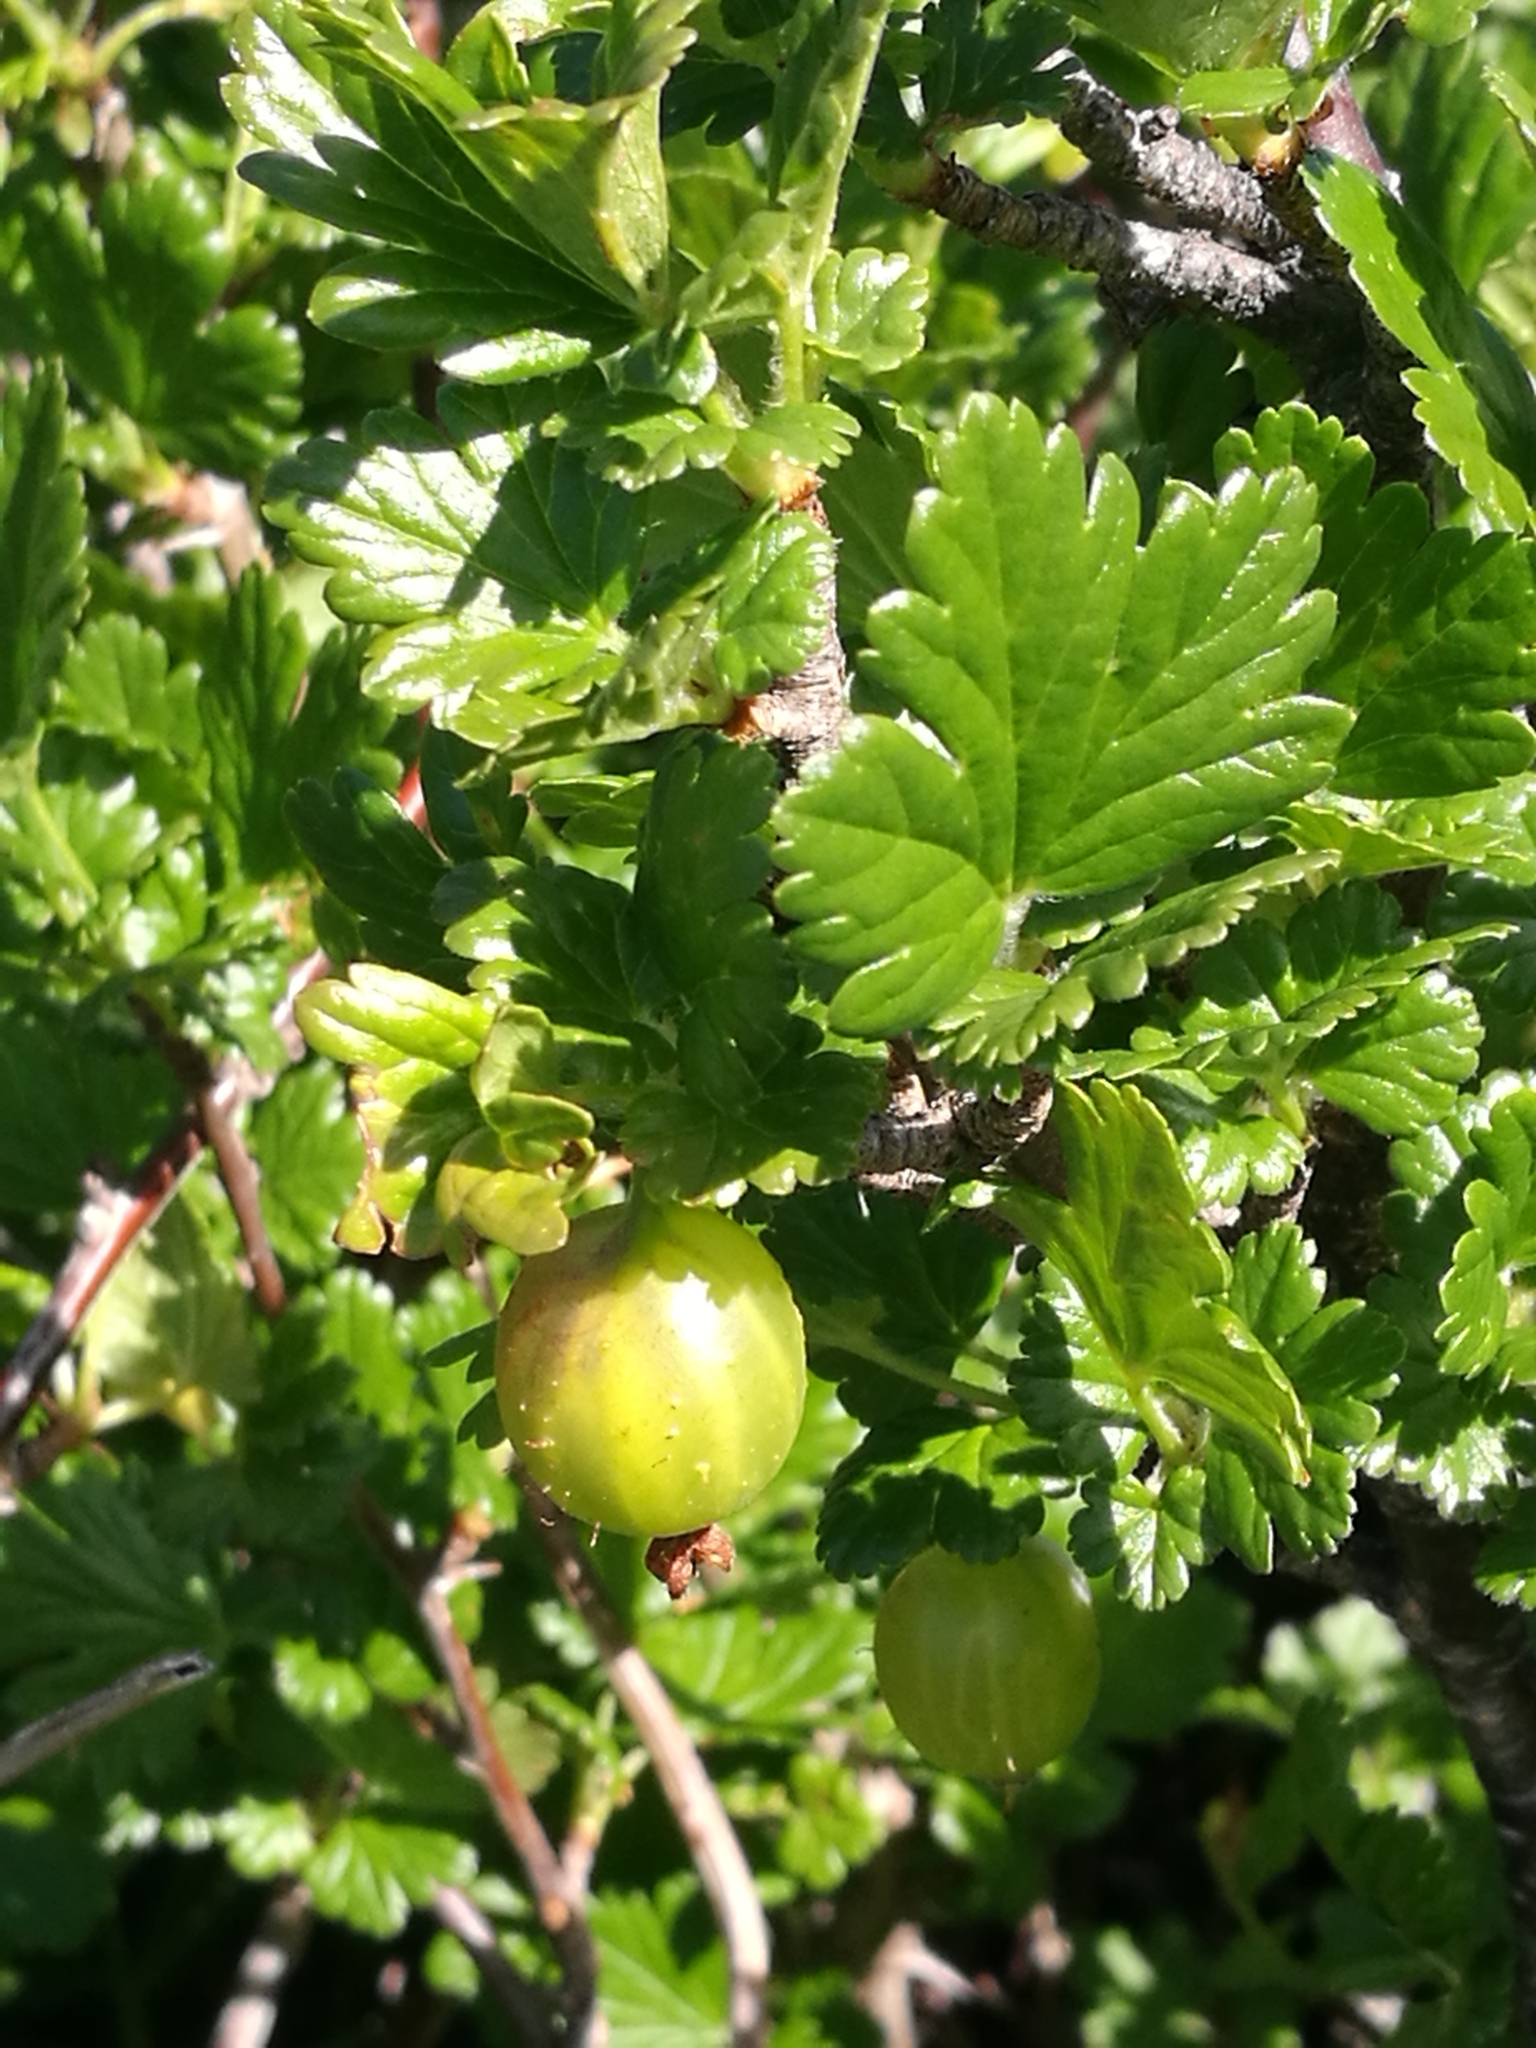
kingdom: Plantae
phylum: Tracheophyta
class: Magnoliopsida
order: Saxifragales
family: Grossulariaceae
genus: Ribes
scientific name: Ribes uva-crispa
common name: Gooseberry
